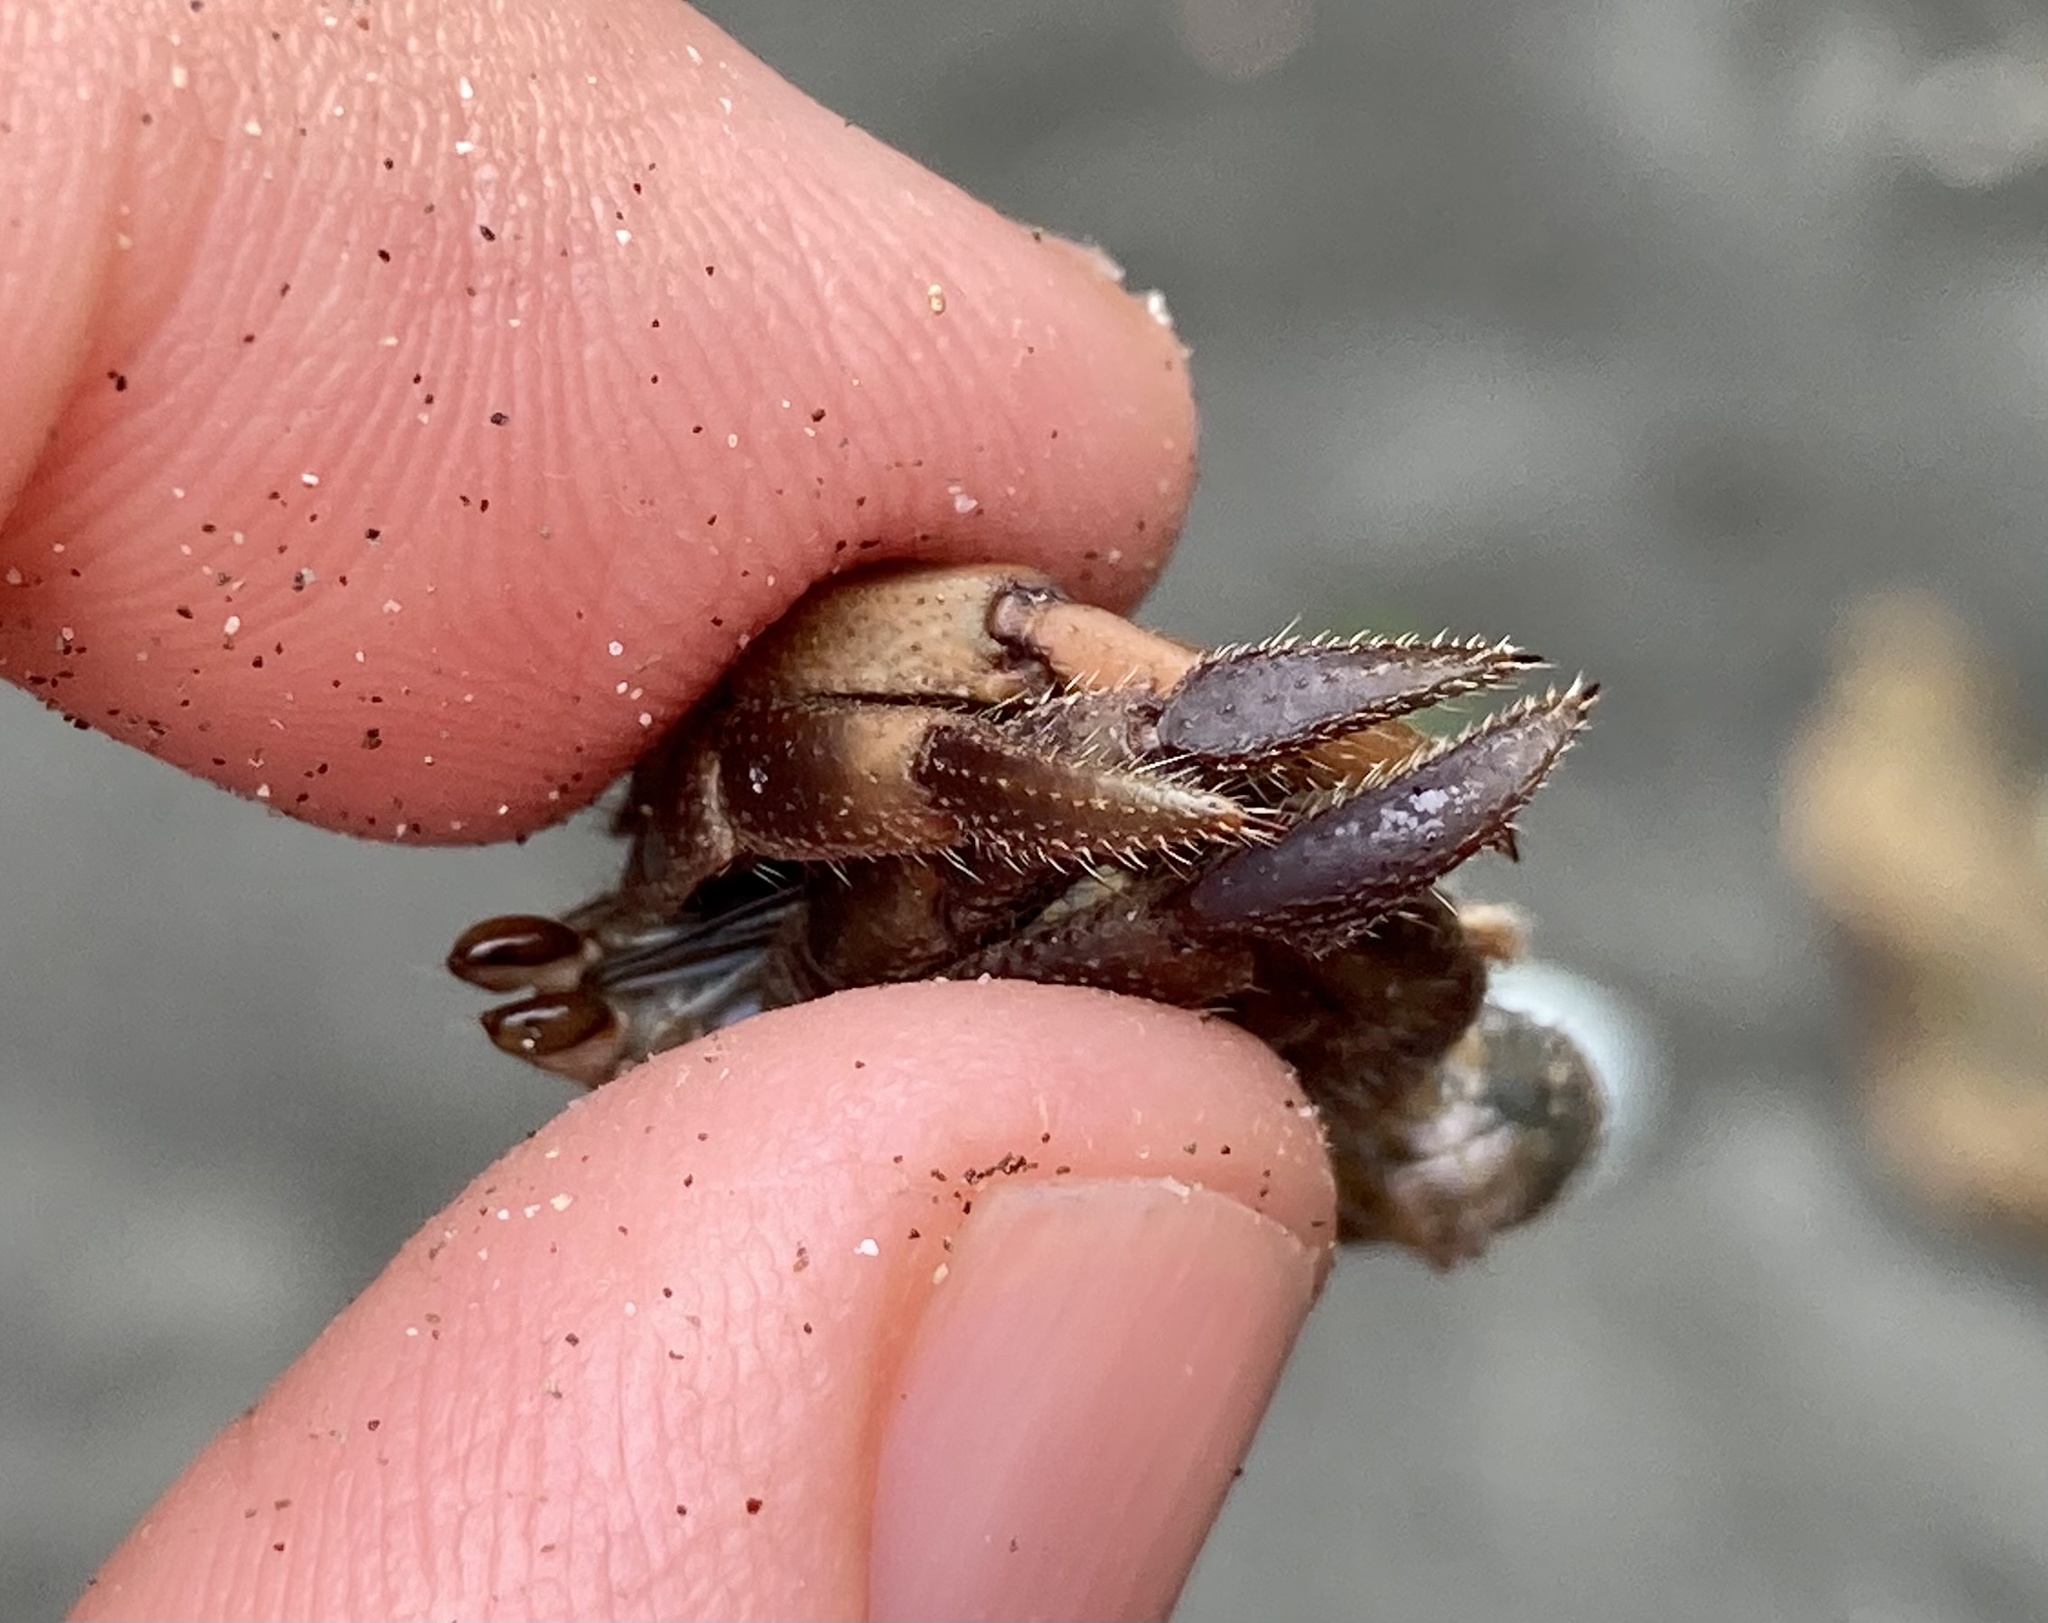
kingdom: Animalia
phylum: Arthropoda
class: Malacostraca
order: Decapoda
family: Coenobitidae
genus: Coenobita
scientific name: Coenobita compressus
